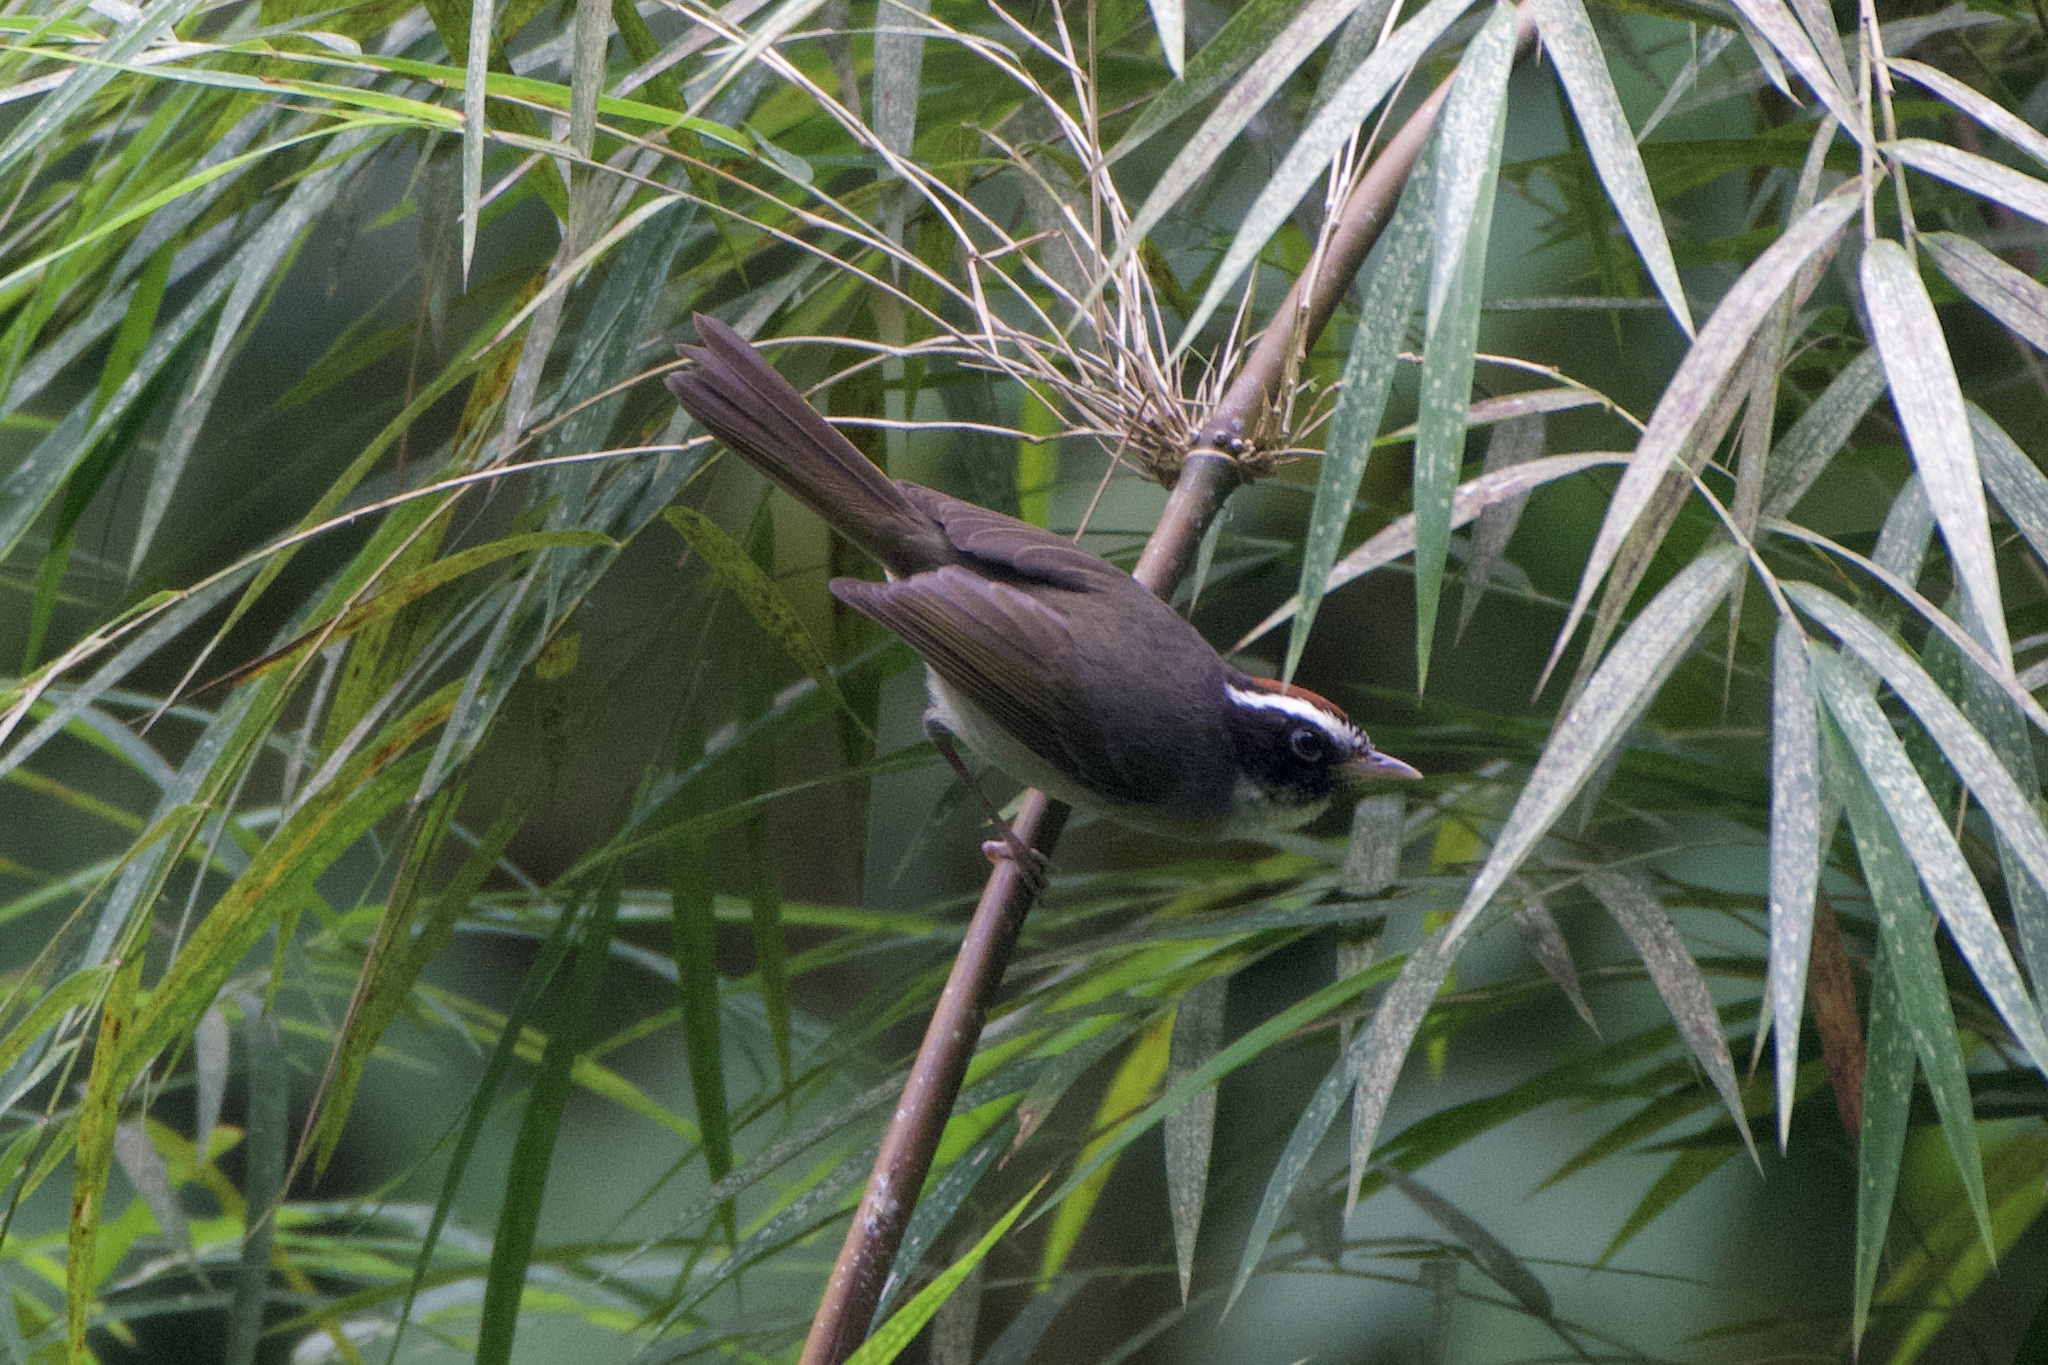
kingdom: Animalia
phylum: Chordata
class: Aves
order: Passeriformes
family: Parulidae
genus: Basileuterus
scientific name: Basileuterus melanogenys
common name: Black-cheeked warbler
